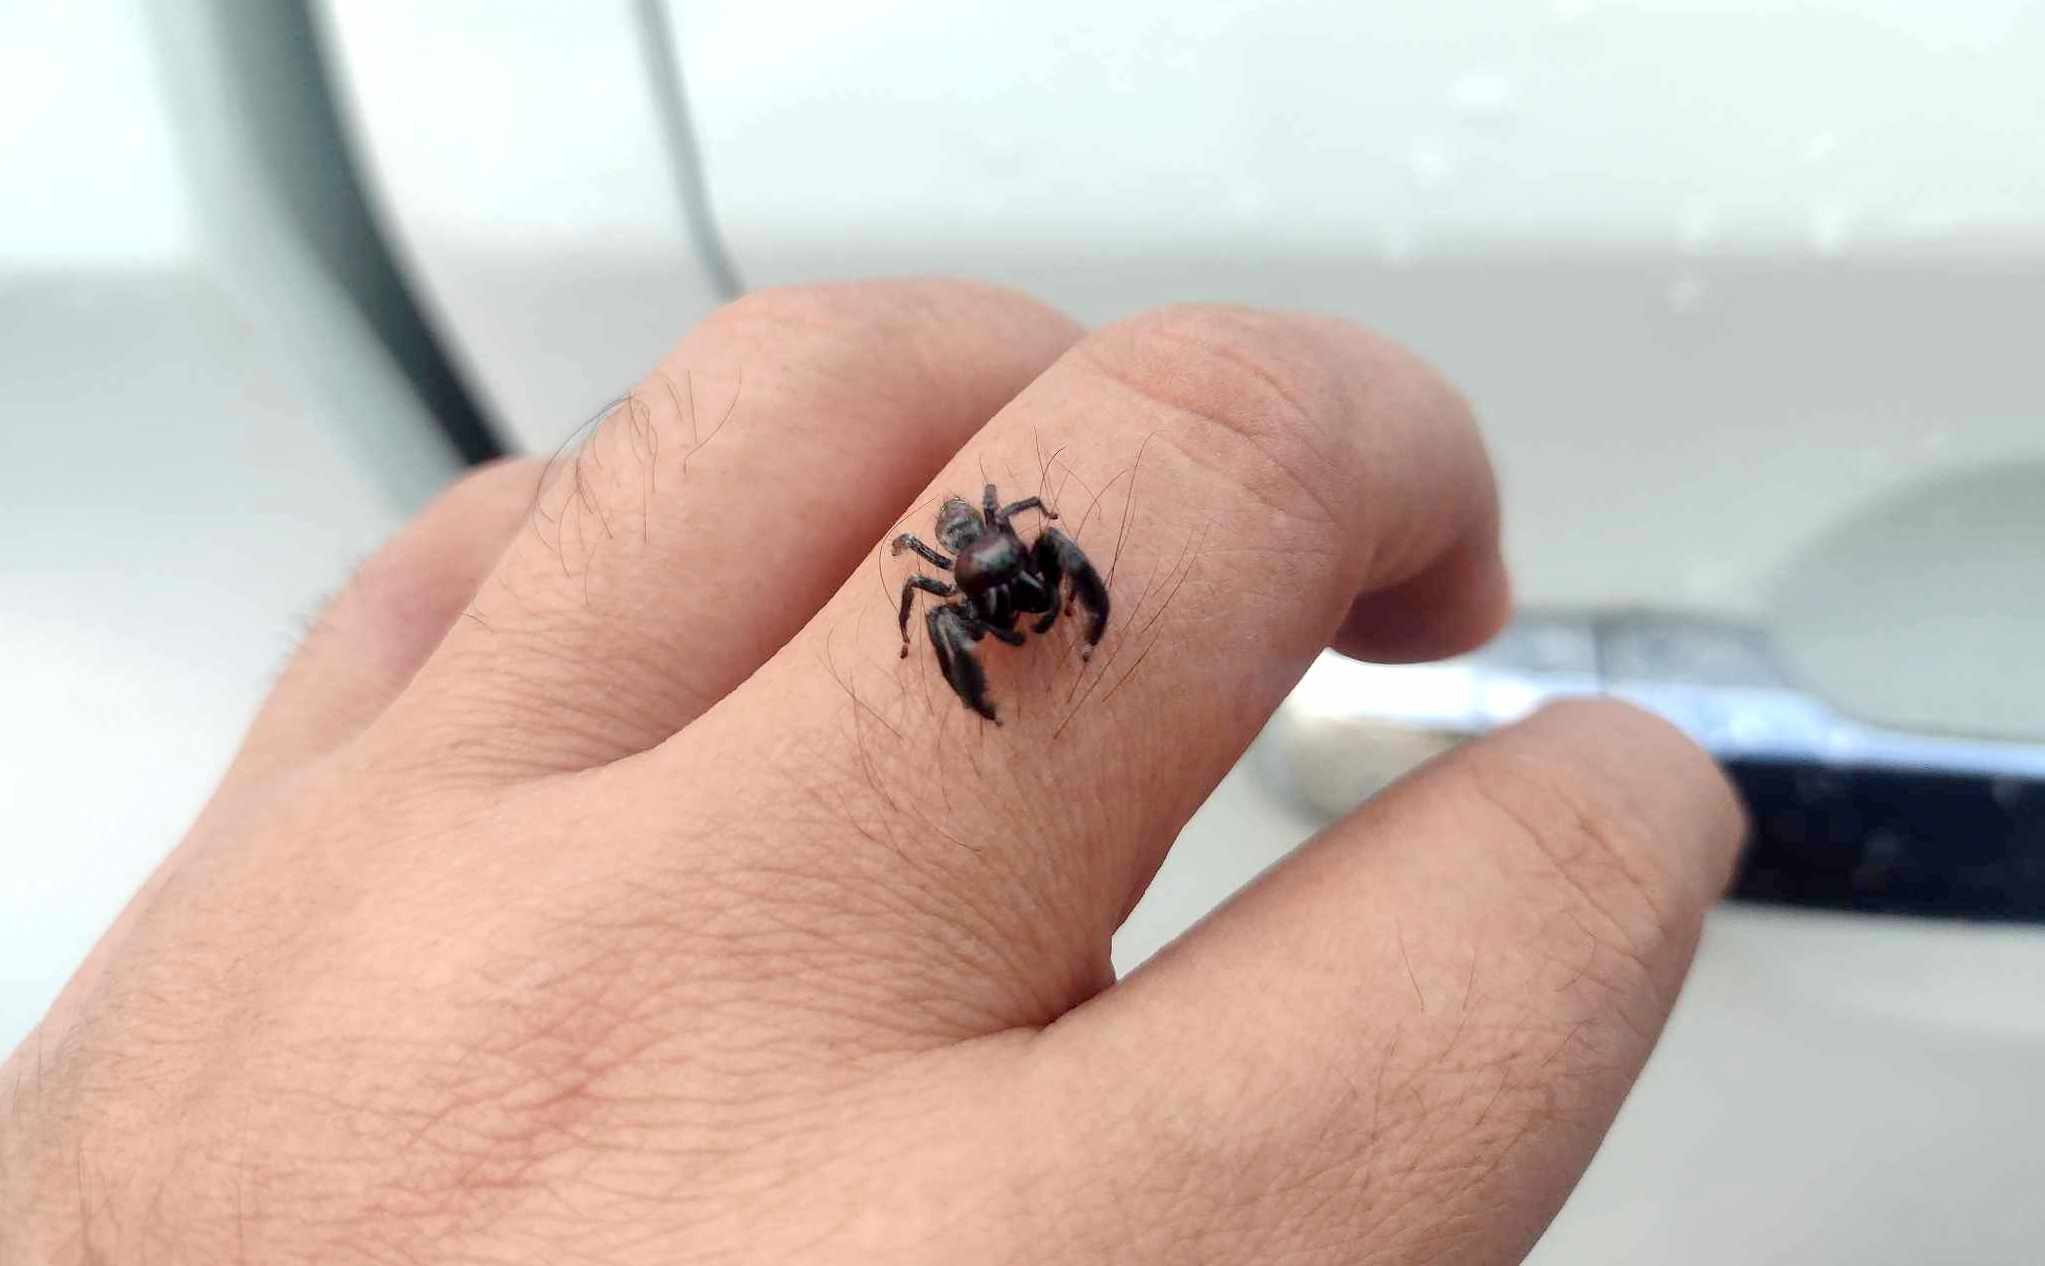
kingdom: Animalia
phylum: Arthropoda
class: Arachnida
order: Araneae
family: Salticidae
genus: Paraphidippus
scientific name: Paraphidippus fartilis
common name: Jumping spiders
